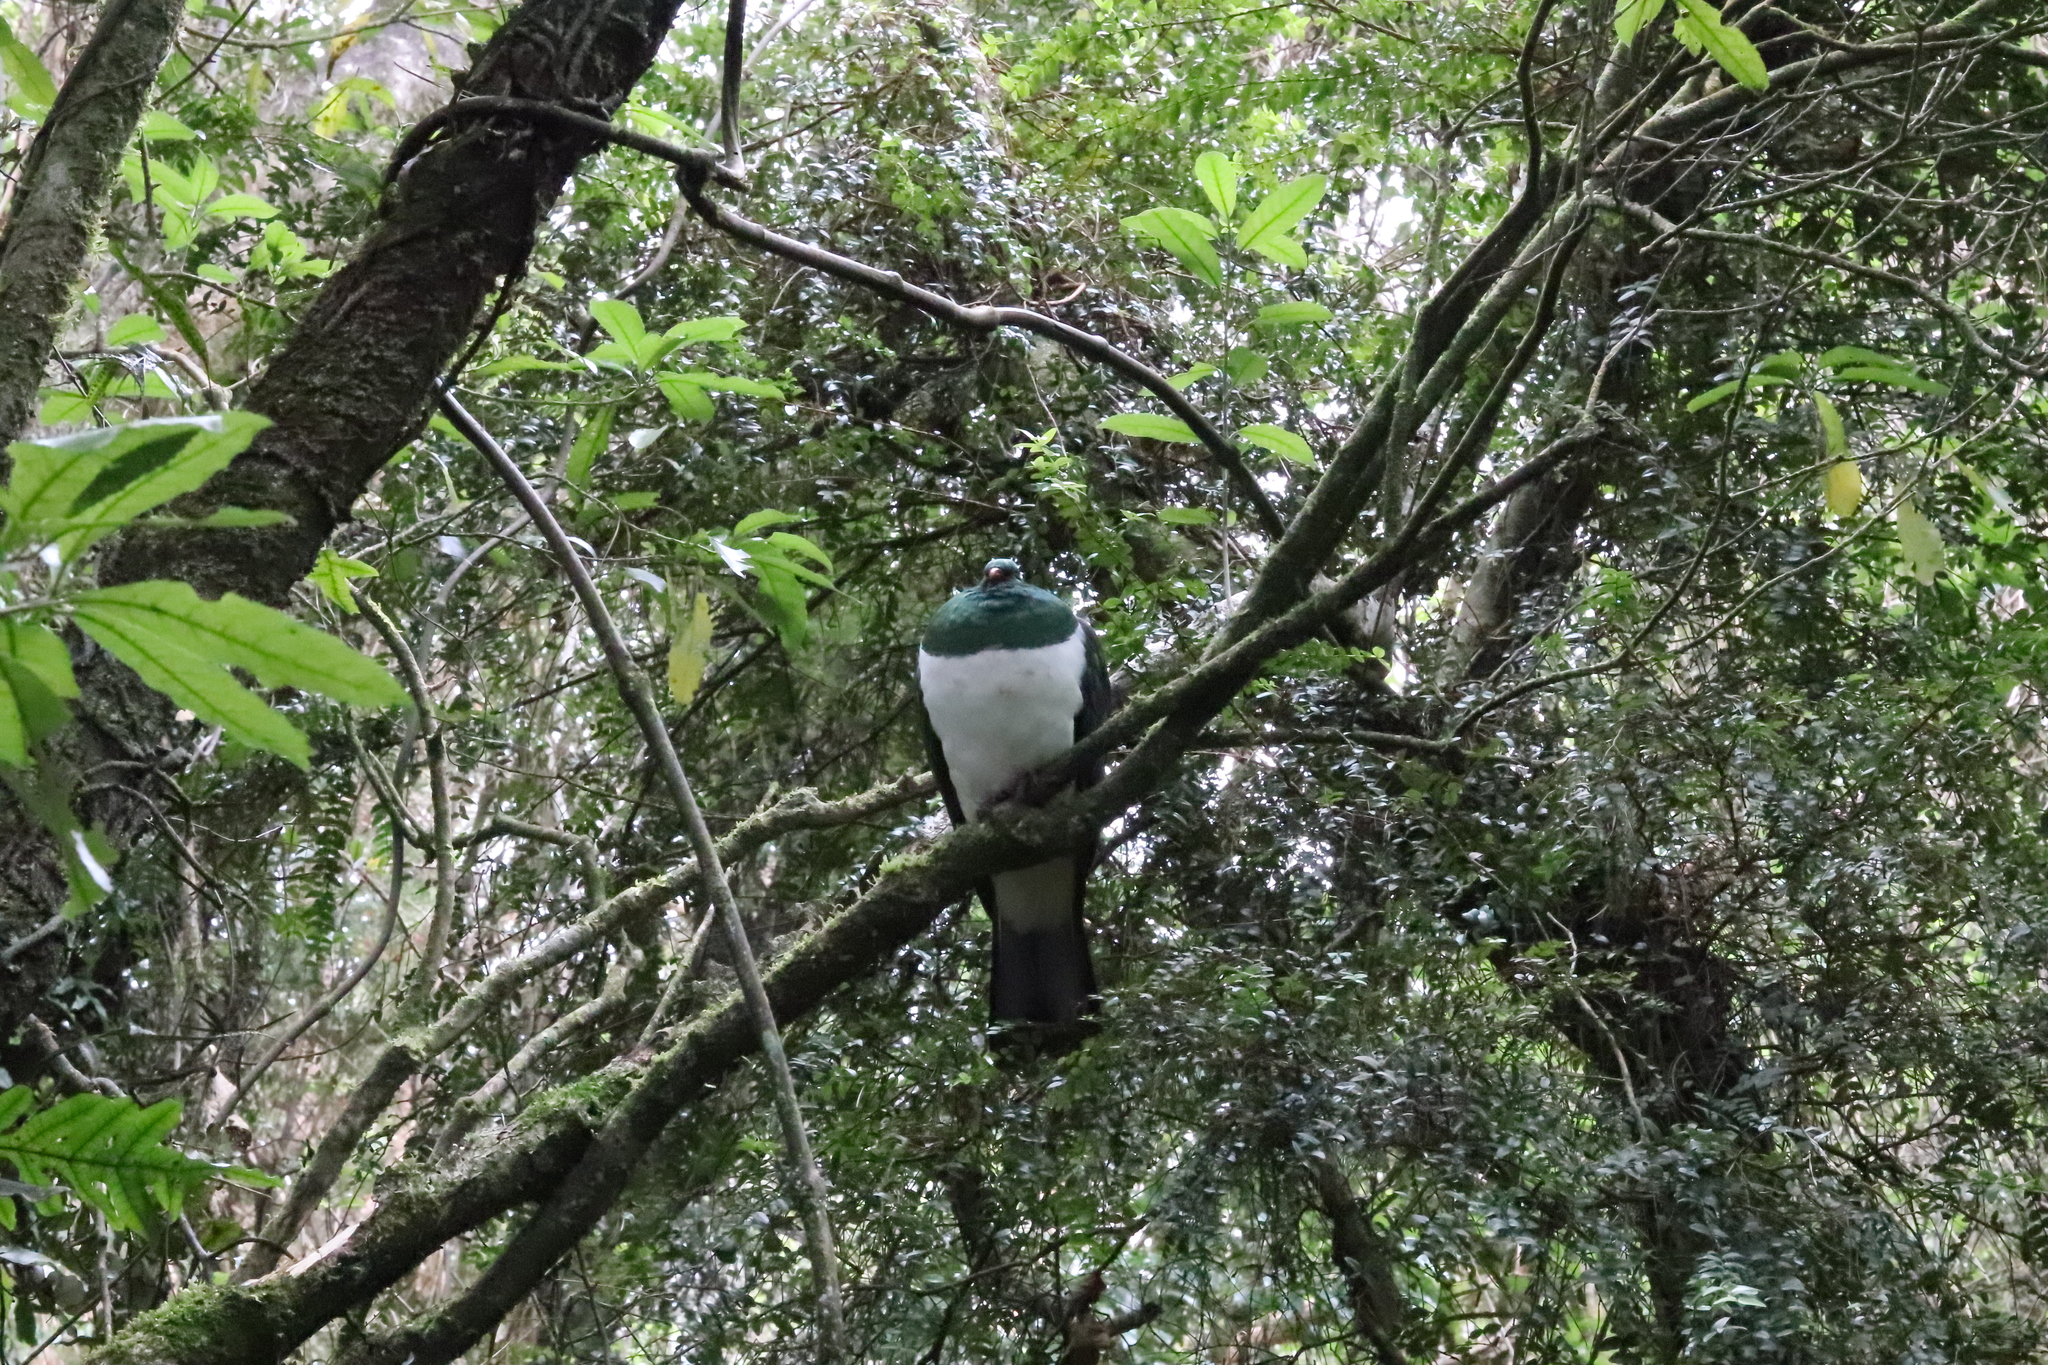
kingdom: Animalia
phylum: Chordata
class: Aves
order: Columbiformes
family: Columbidae
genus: Hemiphaga
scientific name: Hemiphaga novaeseelandiae
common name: New zealand pigeon
